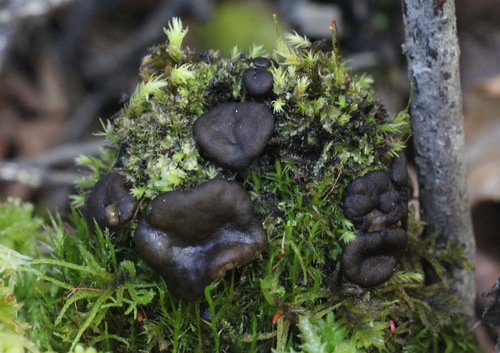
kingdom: Fungi
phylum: Ascomycota
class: Pezizomycetes
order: Pezizales
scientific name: Pezizales
